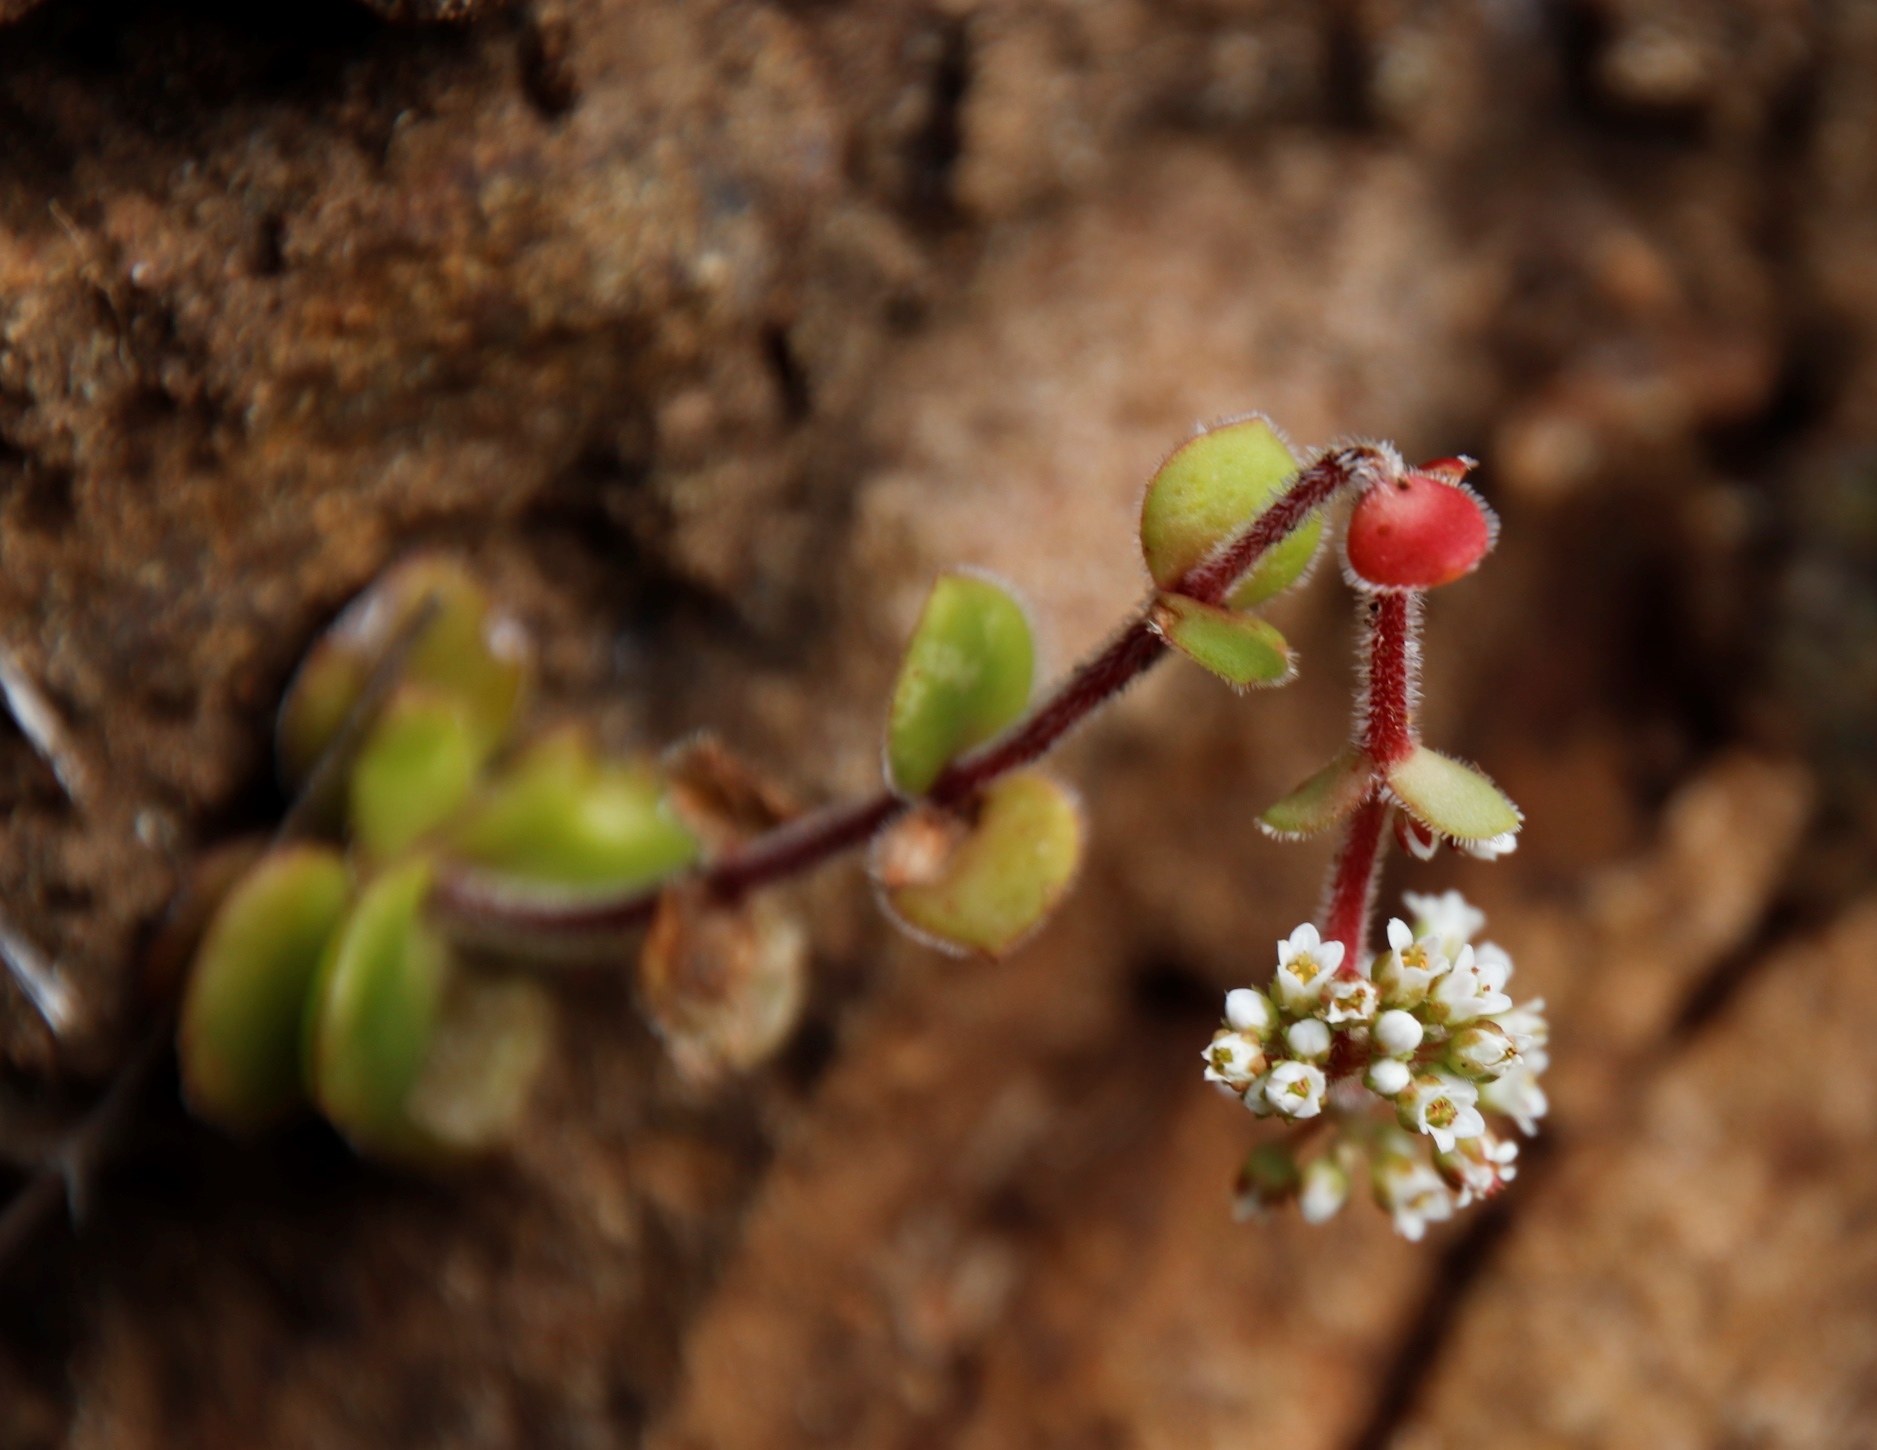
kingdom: Plantae
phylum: Tracheophyta
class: Magnoliopsida
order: Saxifragales
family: Crassulaceae
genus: Crassula
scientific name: Crassula obovata
